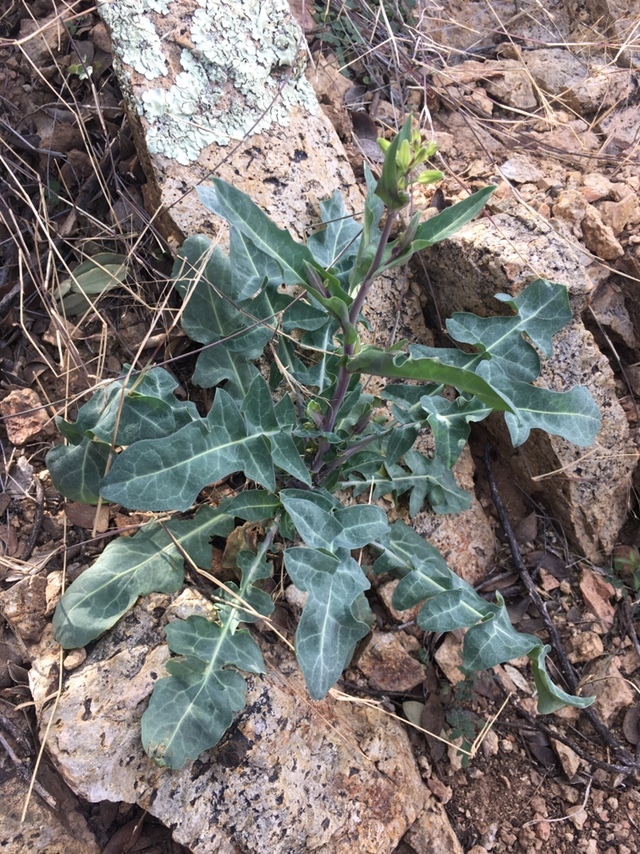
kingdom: Plantae
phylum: Tracheophyta
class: Magnoliopsida
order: Brassicales
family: Brassicaceae
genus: Streptanthus
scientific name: Streptanthus carinatus
